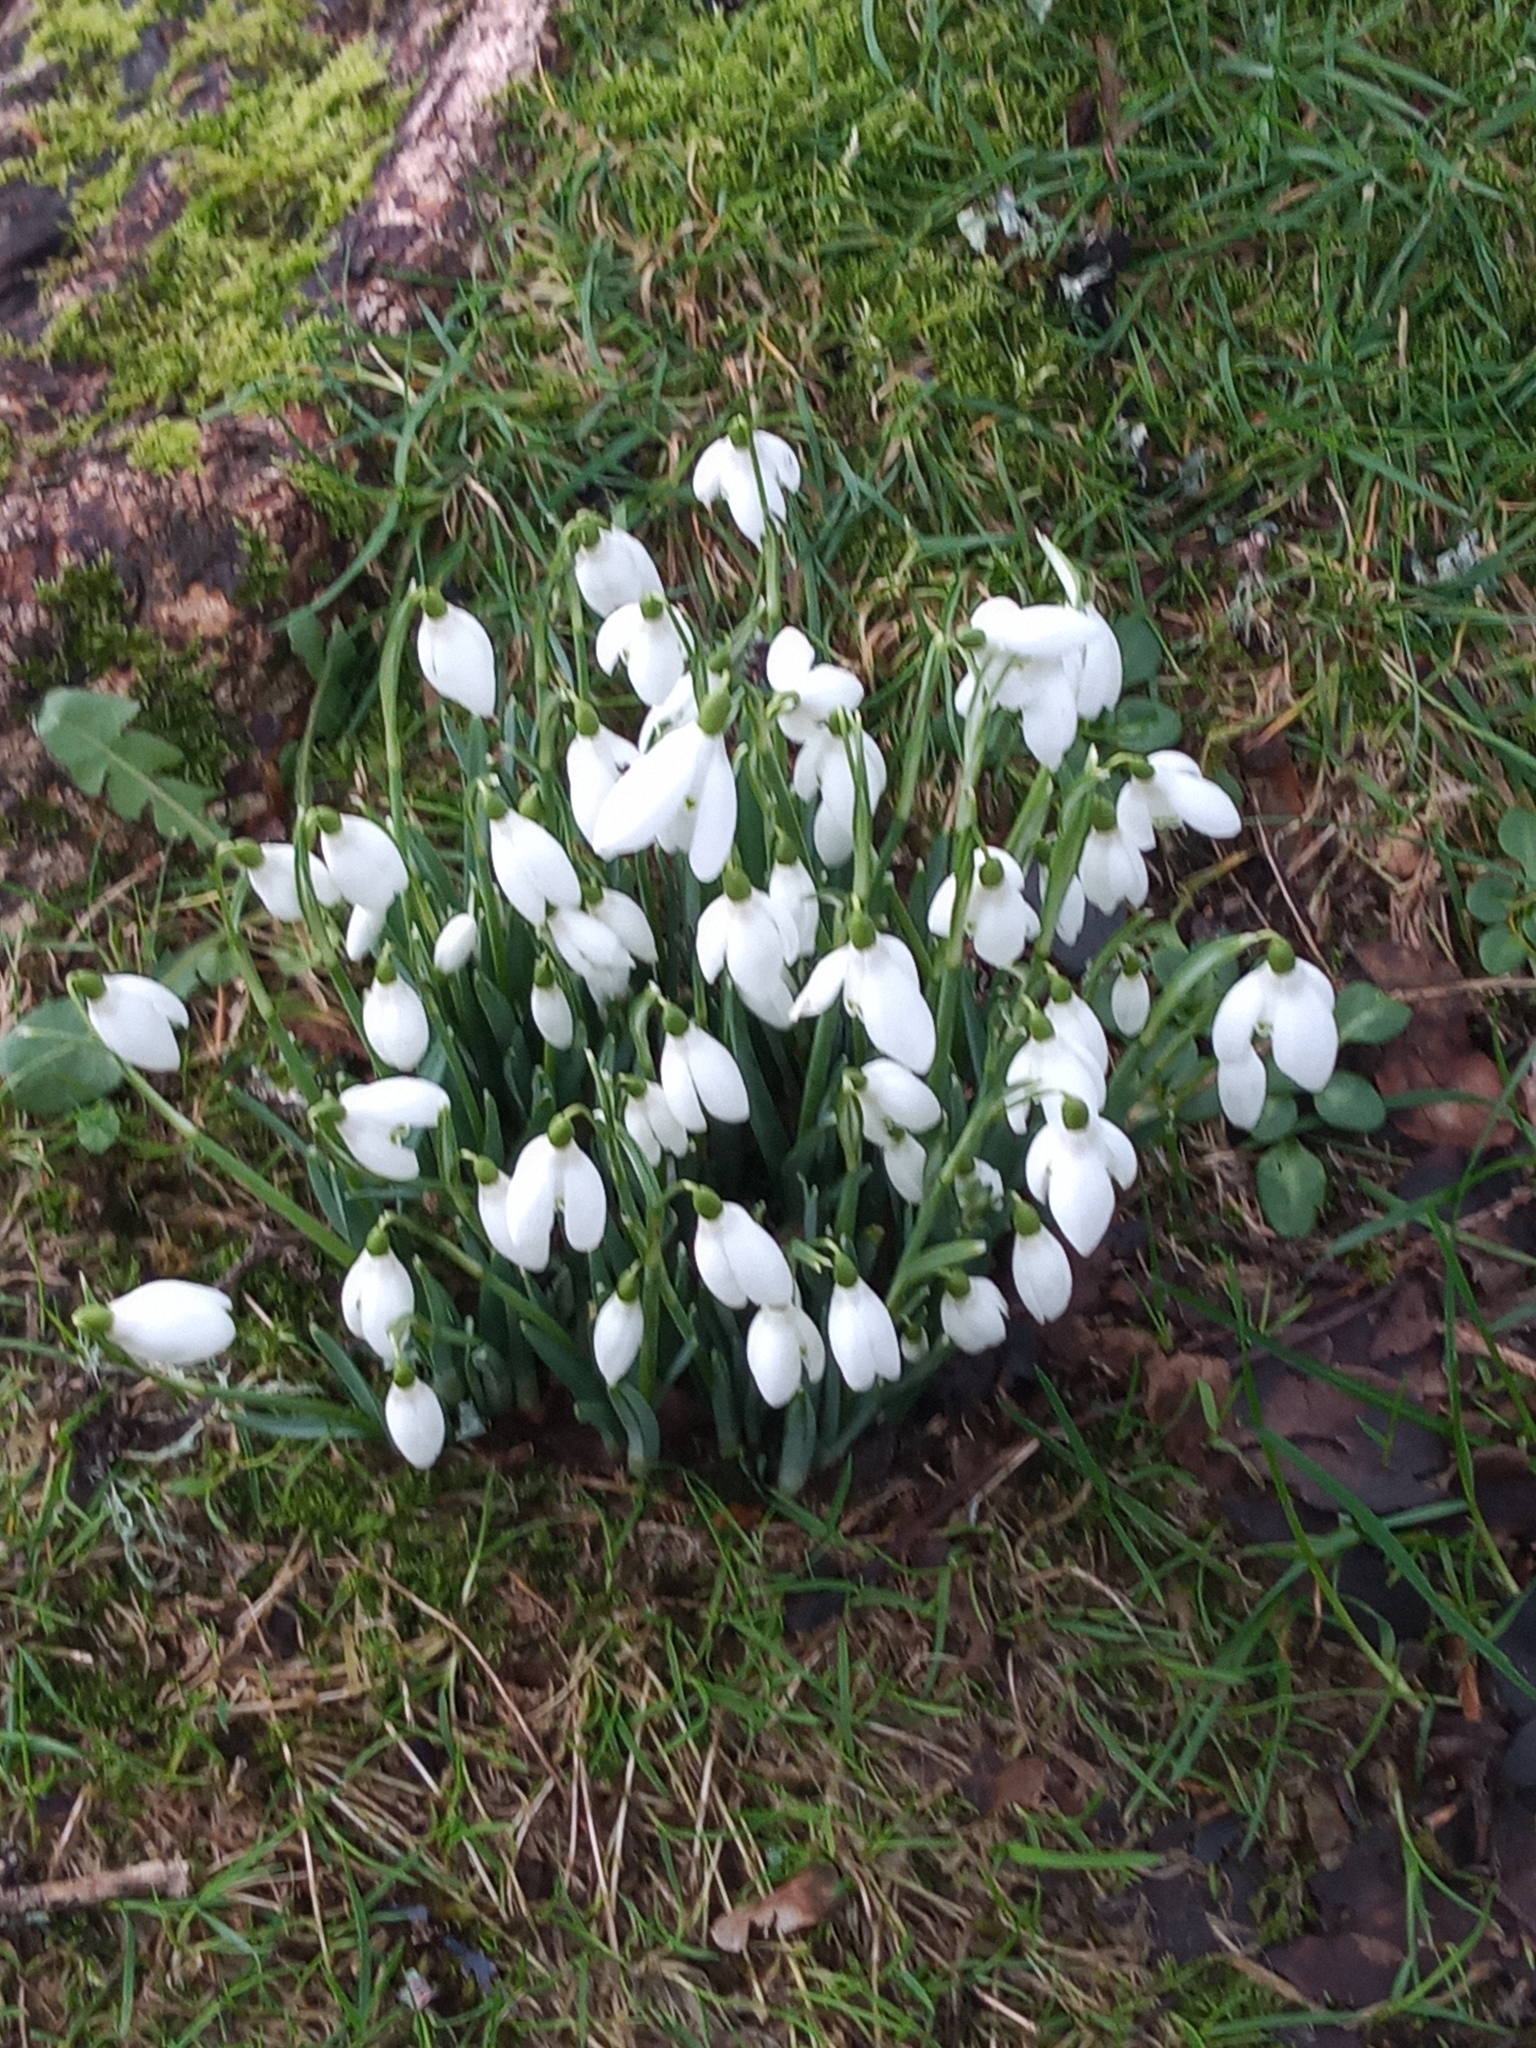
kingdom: Plantae
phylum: Tracheophyta
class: Liliopsida
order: Asparagales
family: Amaryllidaceae
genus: Galanthus
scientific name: Galanthus nivalis
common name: Snowdrop
